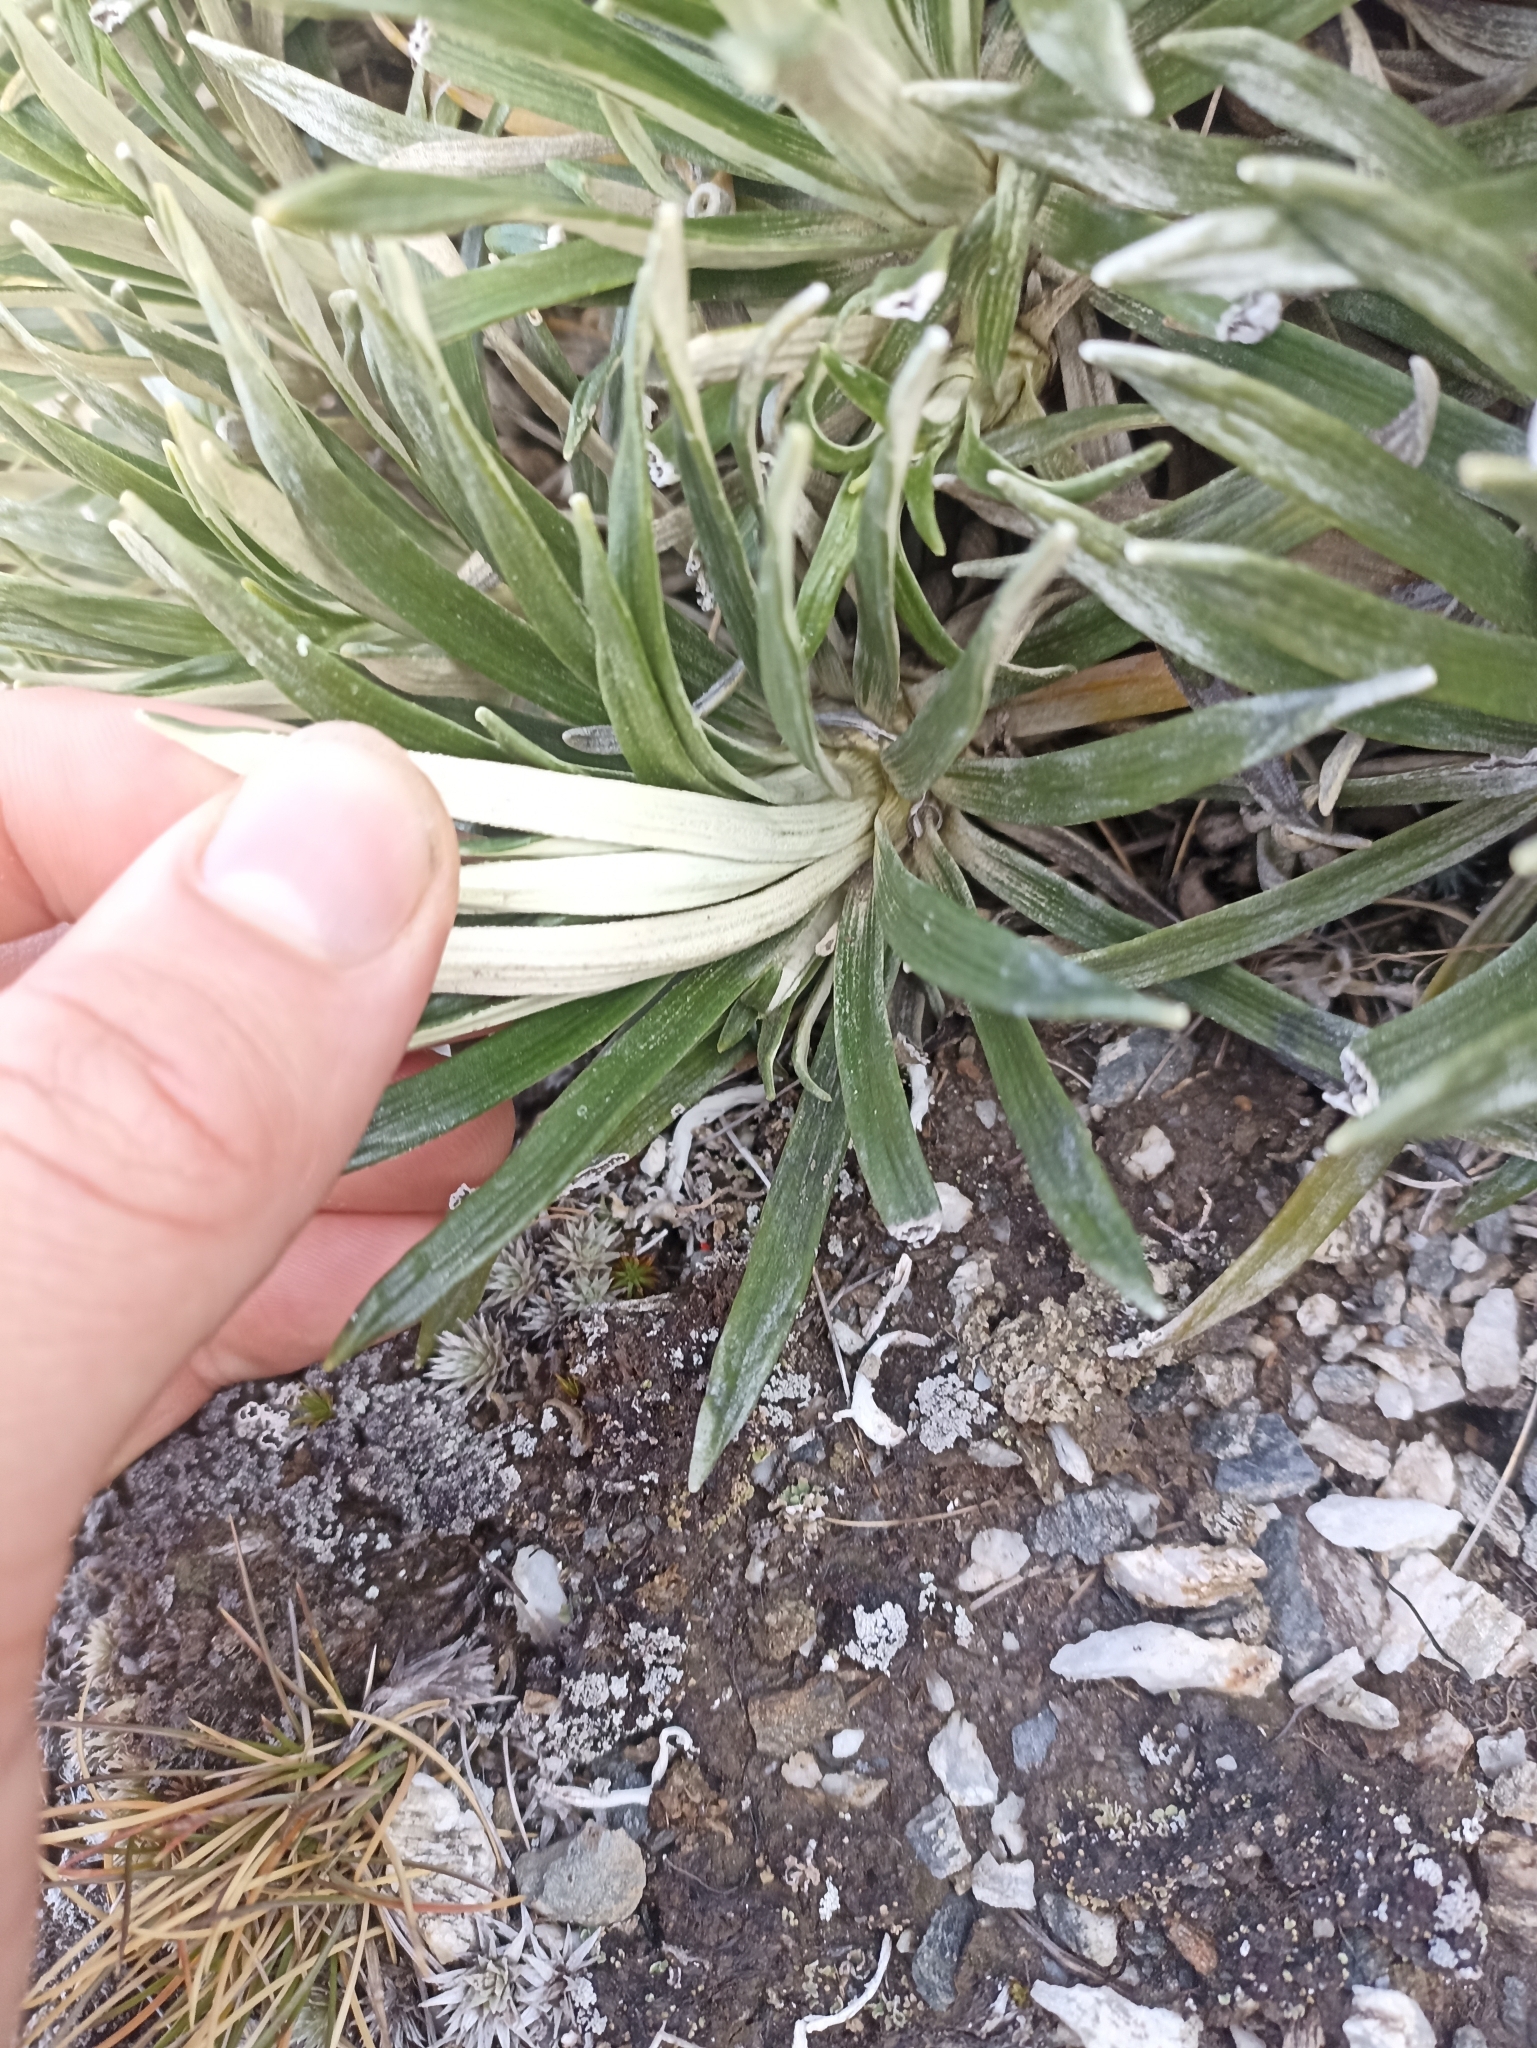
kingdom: Plantae
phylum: Tracheophyta
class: Magnoliopsida
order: Asterales
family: Asteraceae
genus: Celmisia
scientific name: Celmisia viscosa
